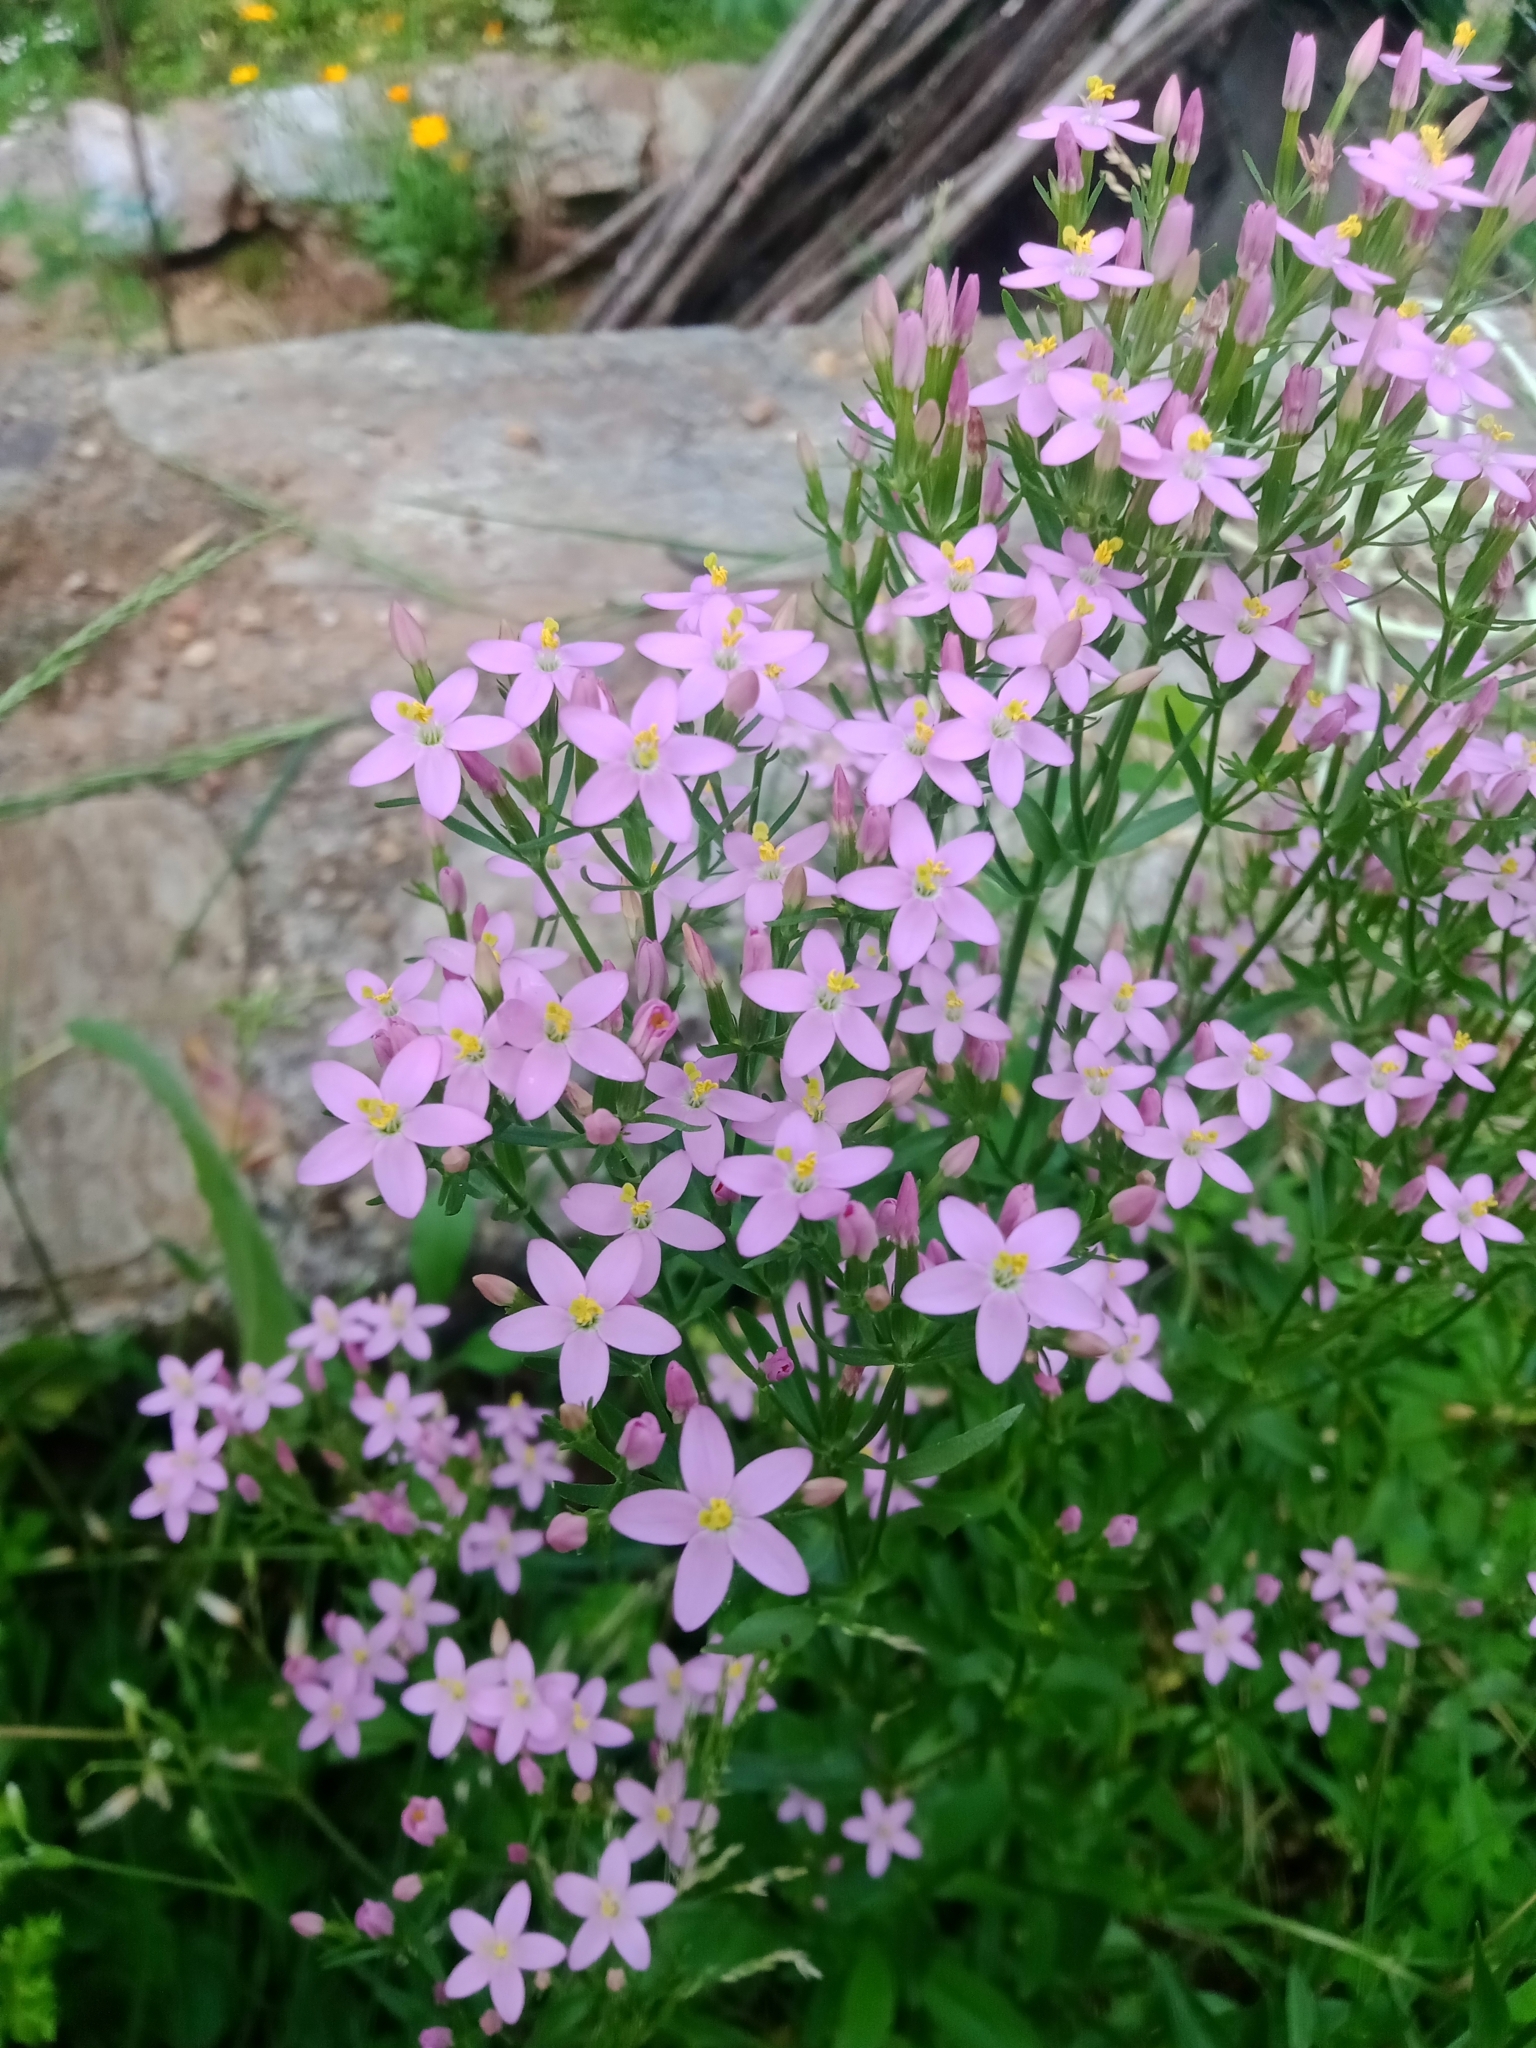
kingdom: Plantae
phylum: Tracheophyta
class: Magnoliopsida
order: Gentianales
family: Gentianaceae
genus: Centaurium
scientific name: Centaurium erythraea
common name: Common centaury
